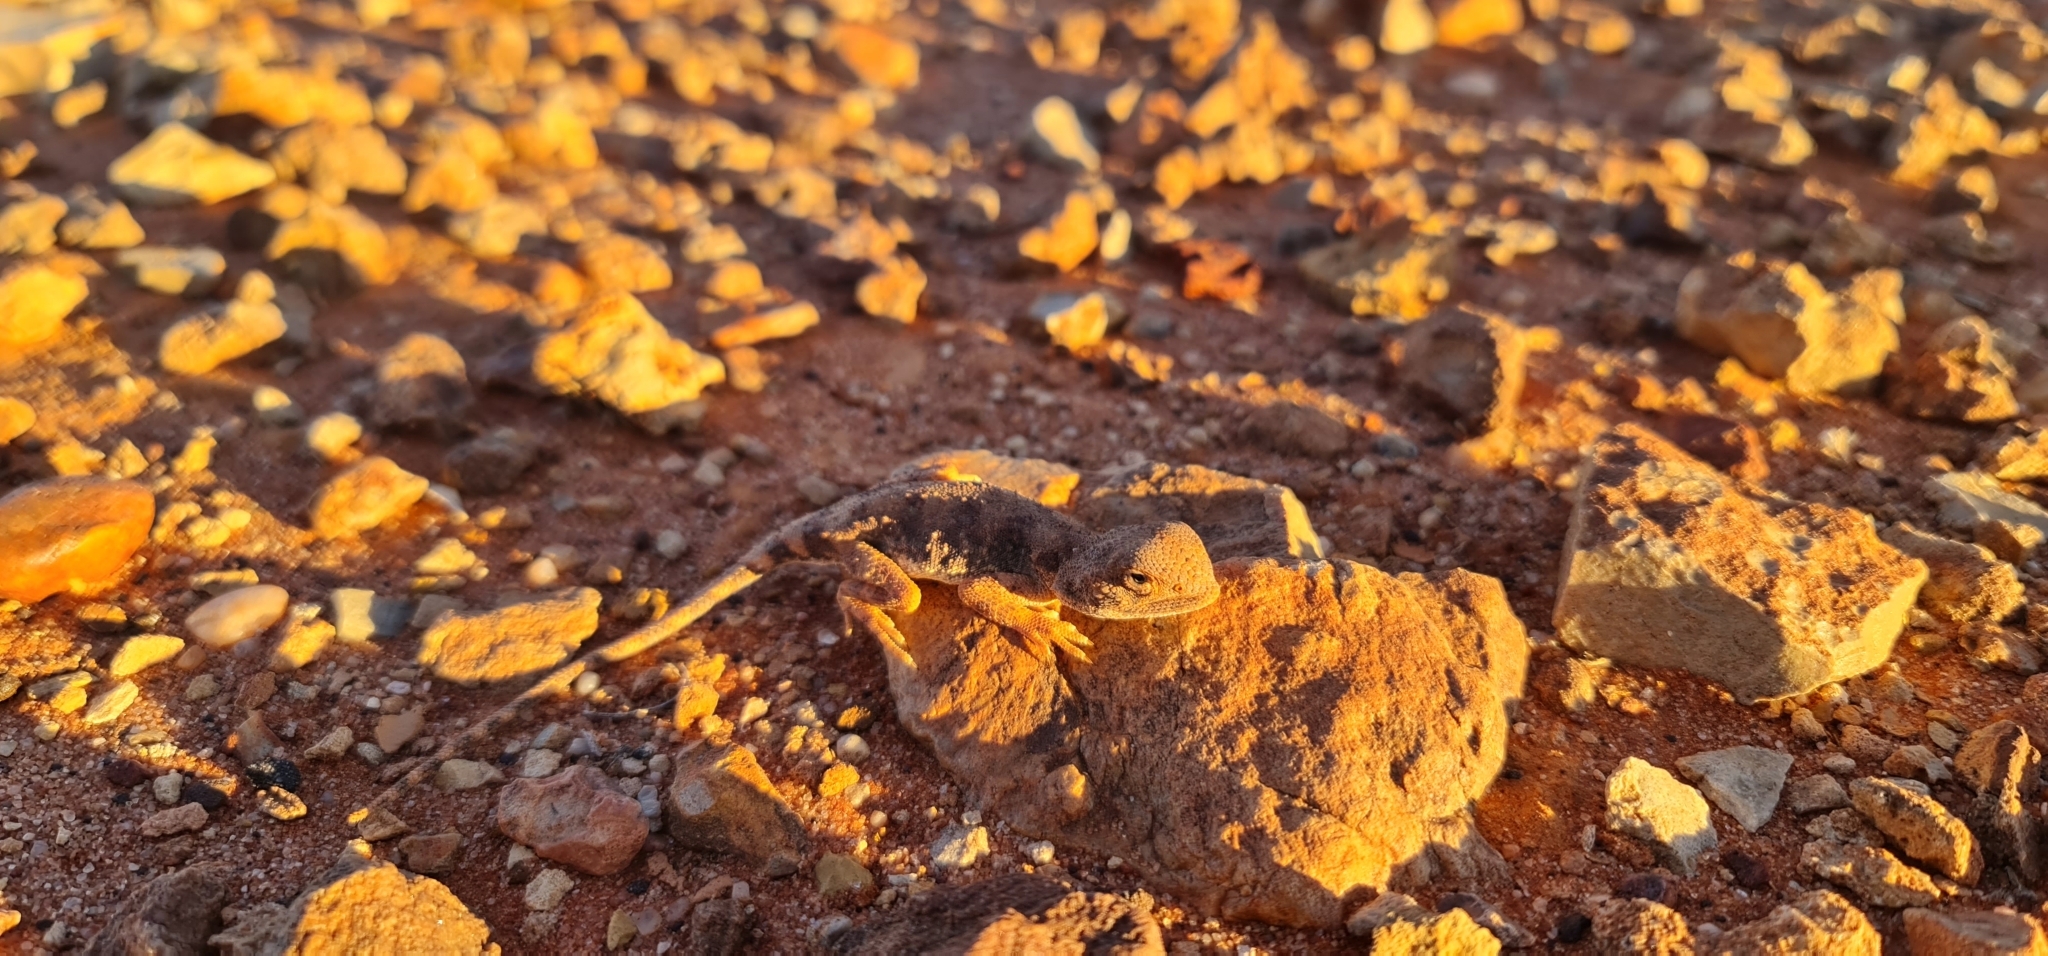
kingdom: Animalia
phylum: Chordata
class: Squamata
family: Agamidae
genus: Tympanocryptis
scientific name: Tympanocryptis intima
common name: Gibber earless dragon
